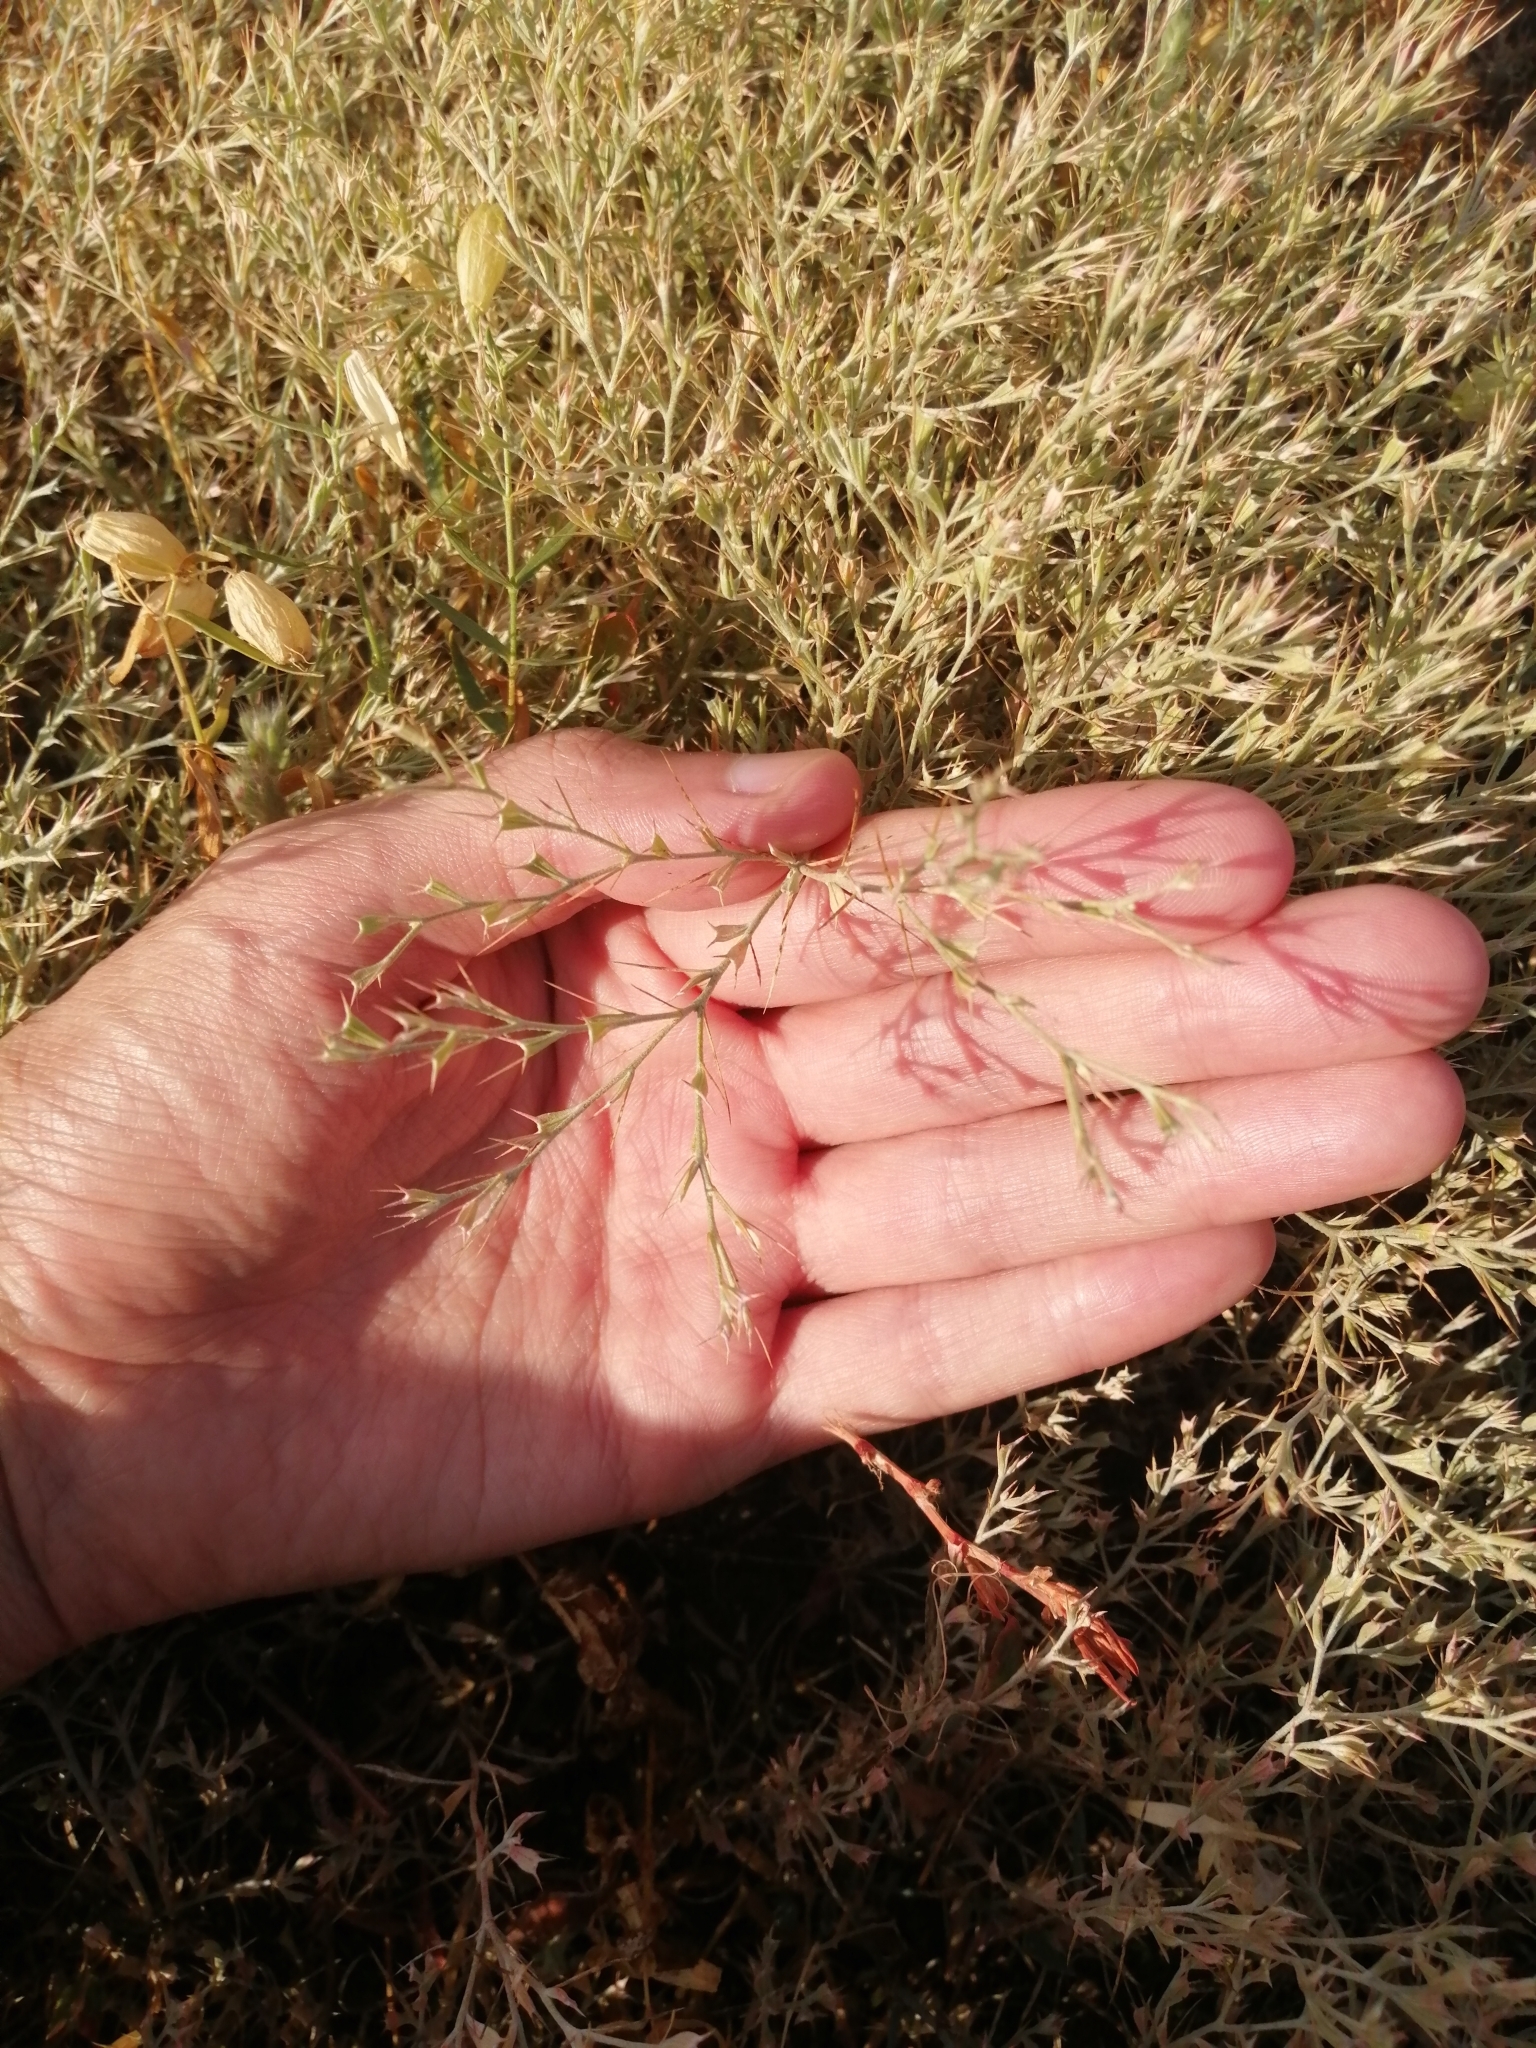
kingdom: Plantae
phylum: Tracheophyta
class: Magnoliopsida
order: Caryophyllales
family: Amaranthaceae
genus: Ceratocarpus
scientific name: Ceratocarpus arenarius
